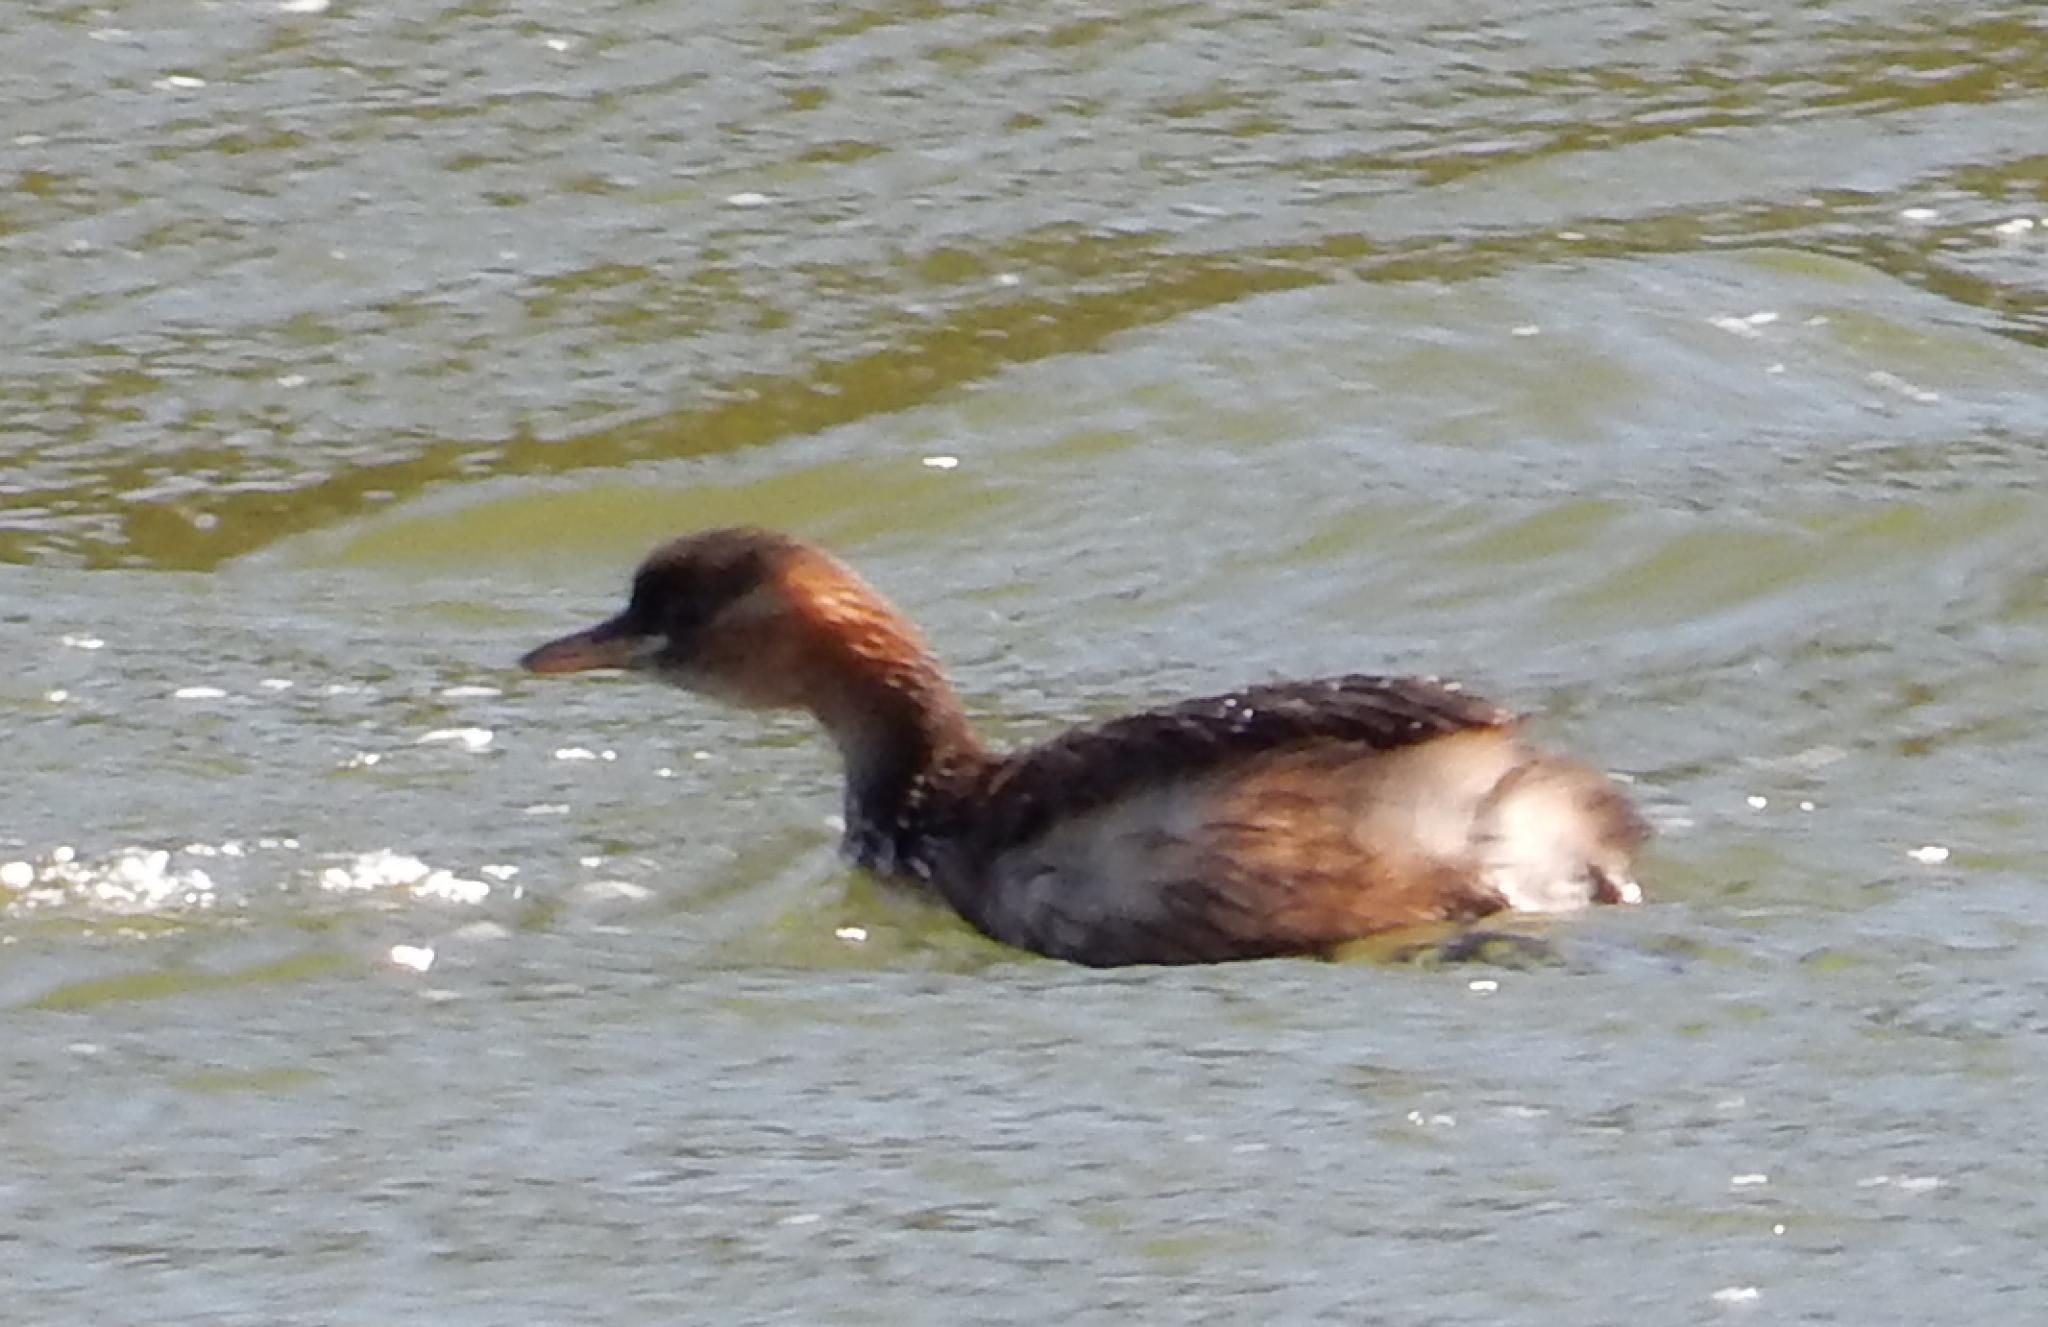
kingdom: Animalia
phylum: Chordata
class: Aves
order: Podicipediformes
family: Podicipedidae
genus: Tachybaptus
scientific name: Tachybaptus ruficollis
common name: Little grebe
